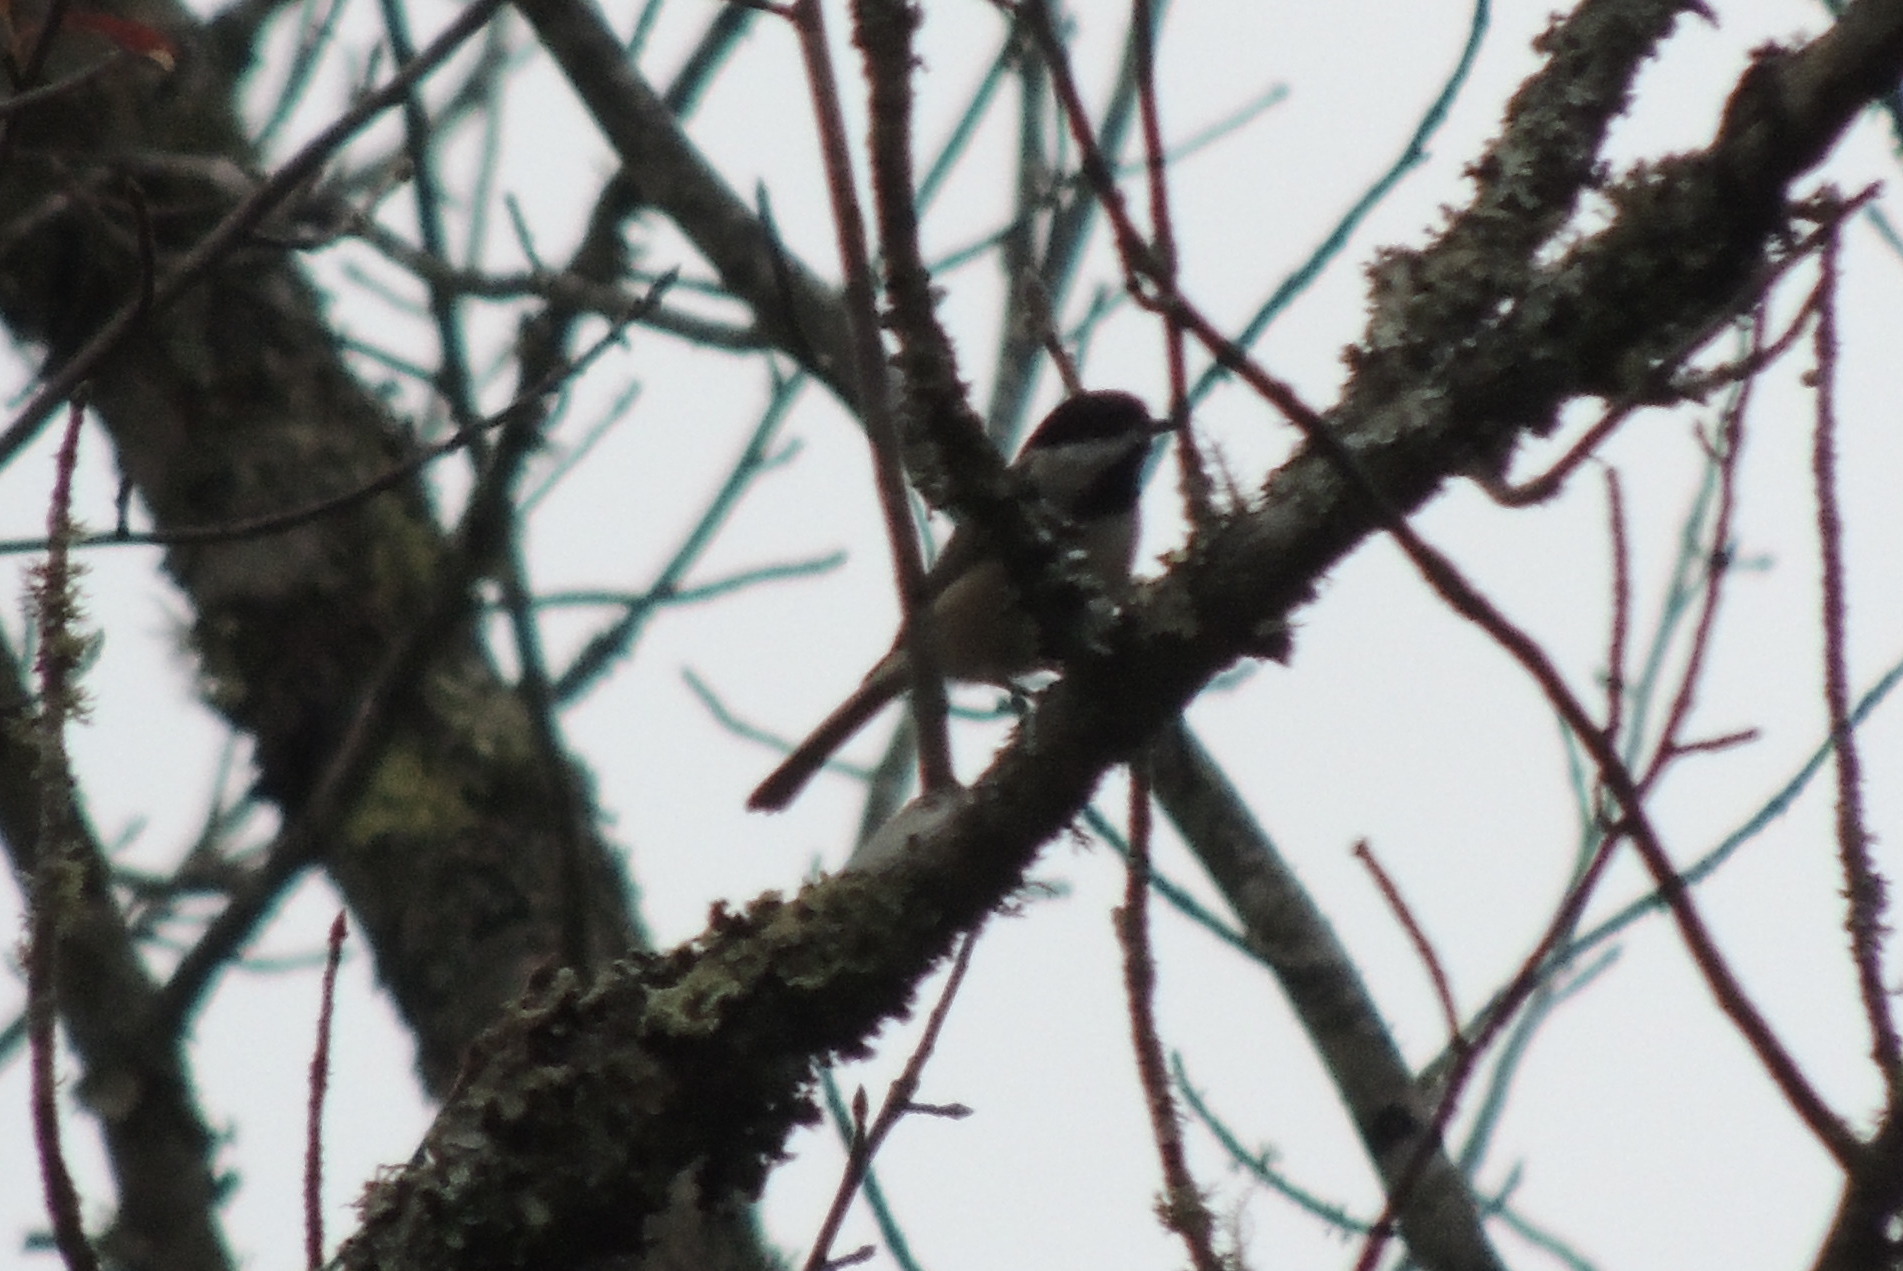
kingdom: Animalia
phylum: Chordata
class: Aves
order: Passeriformes
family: Paridae
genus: Poecile
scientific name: Poecile carolinensis
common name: Carolina chickadee
